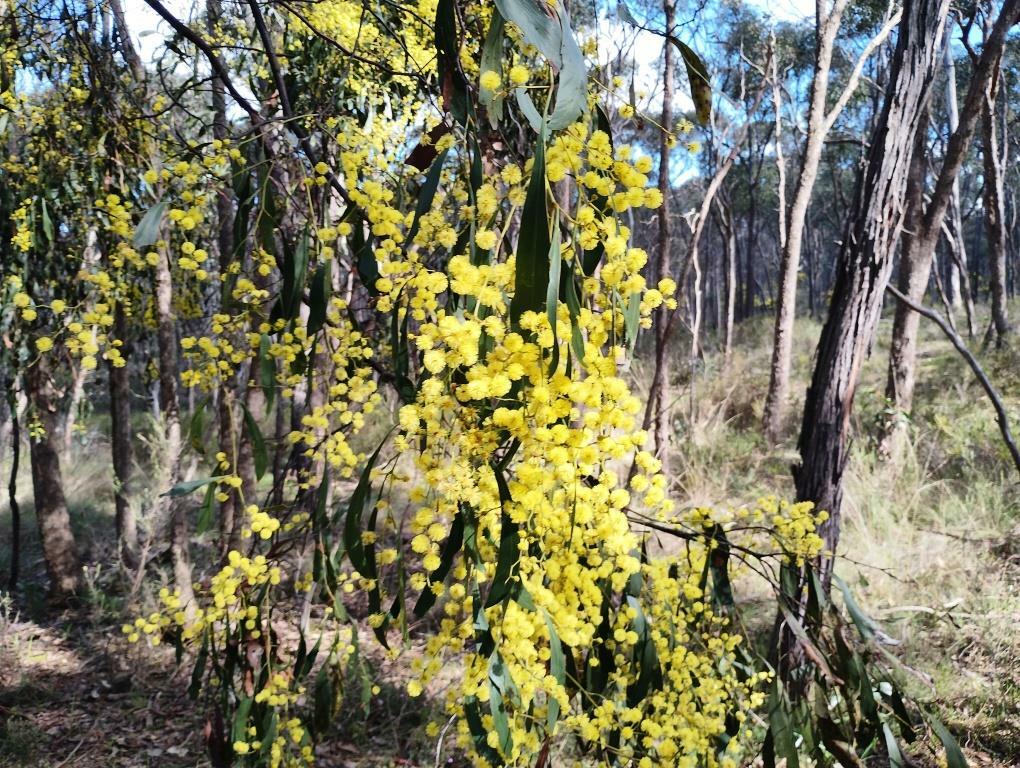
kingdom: Plantae
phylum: Tracheophyta
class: Magnoliopsida
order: Fabales
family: Fabaceae
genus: Acacia
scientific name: Acacia pycnantha
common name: Golden wattle
